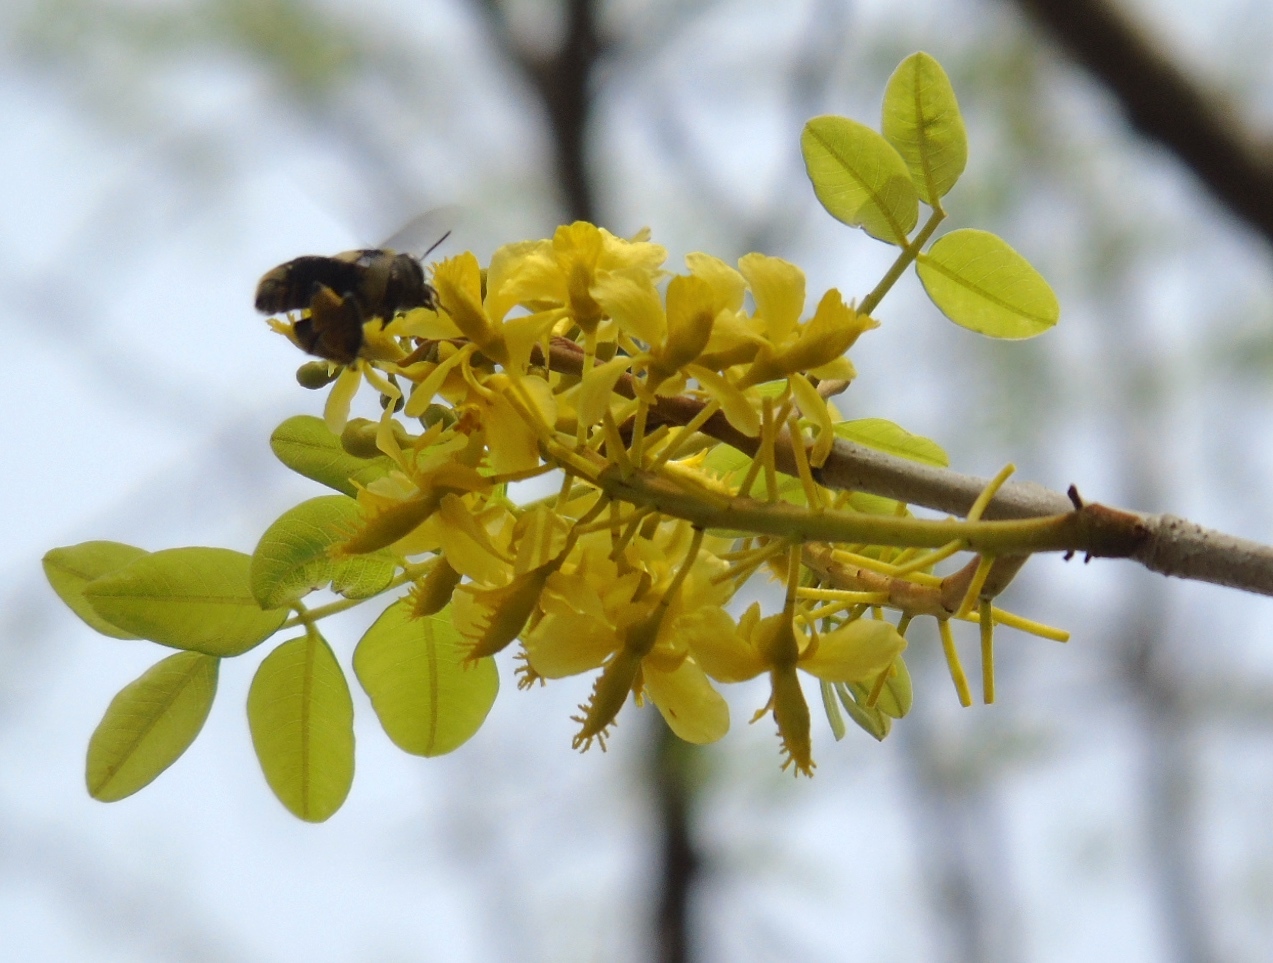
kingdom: Plantae
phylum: Tracheophyta
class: Magnoliopsida
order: Fabales
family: Fabaceae
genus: Coulteria
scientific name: Coulteria platyloba
